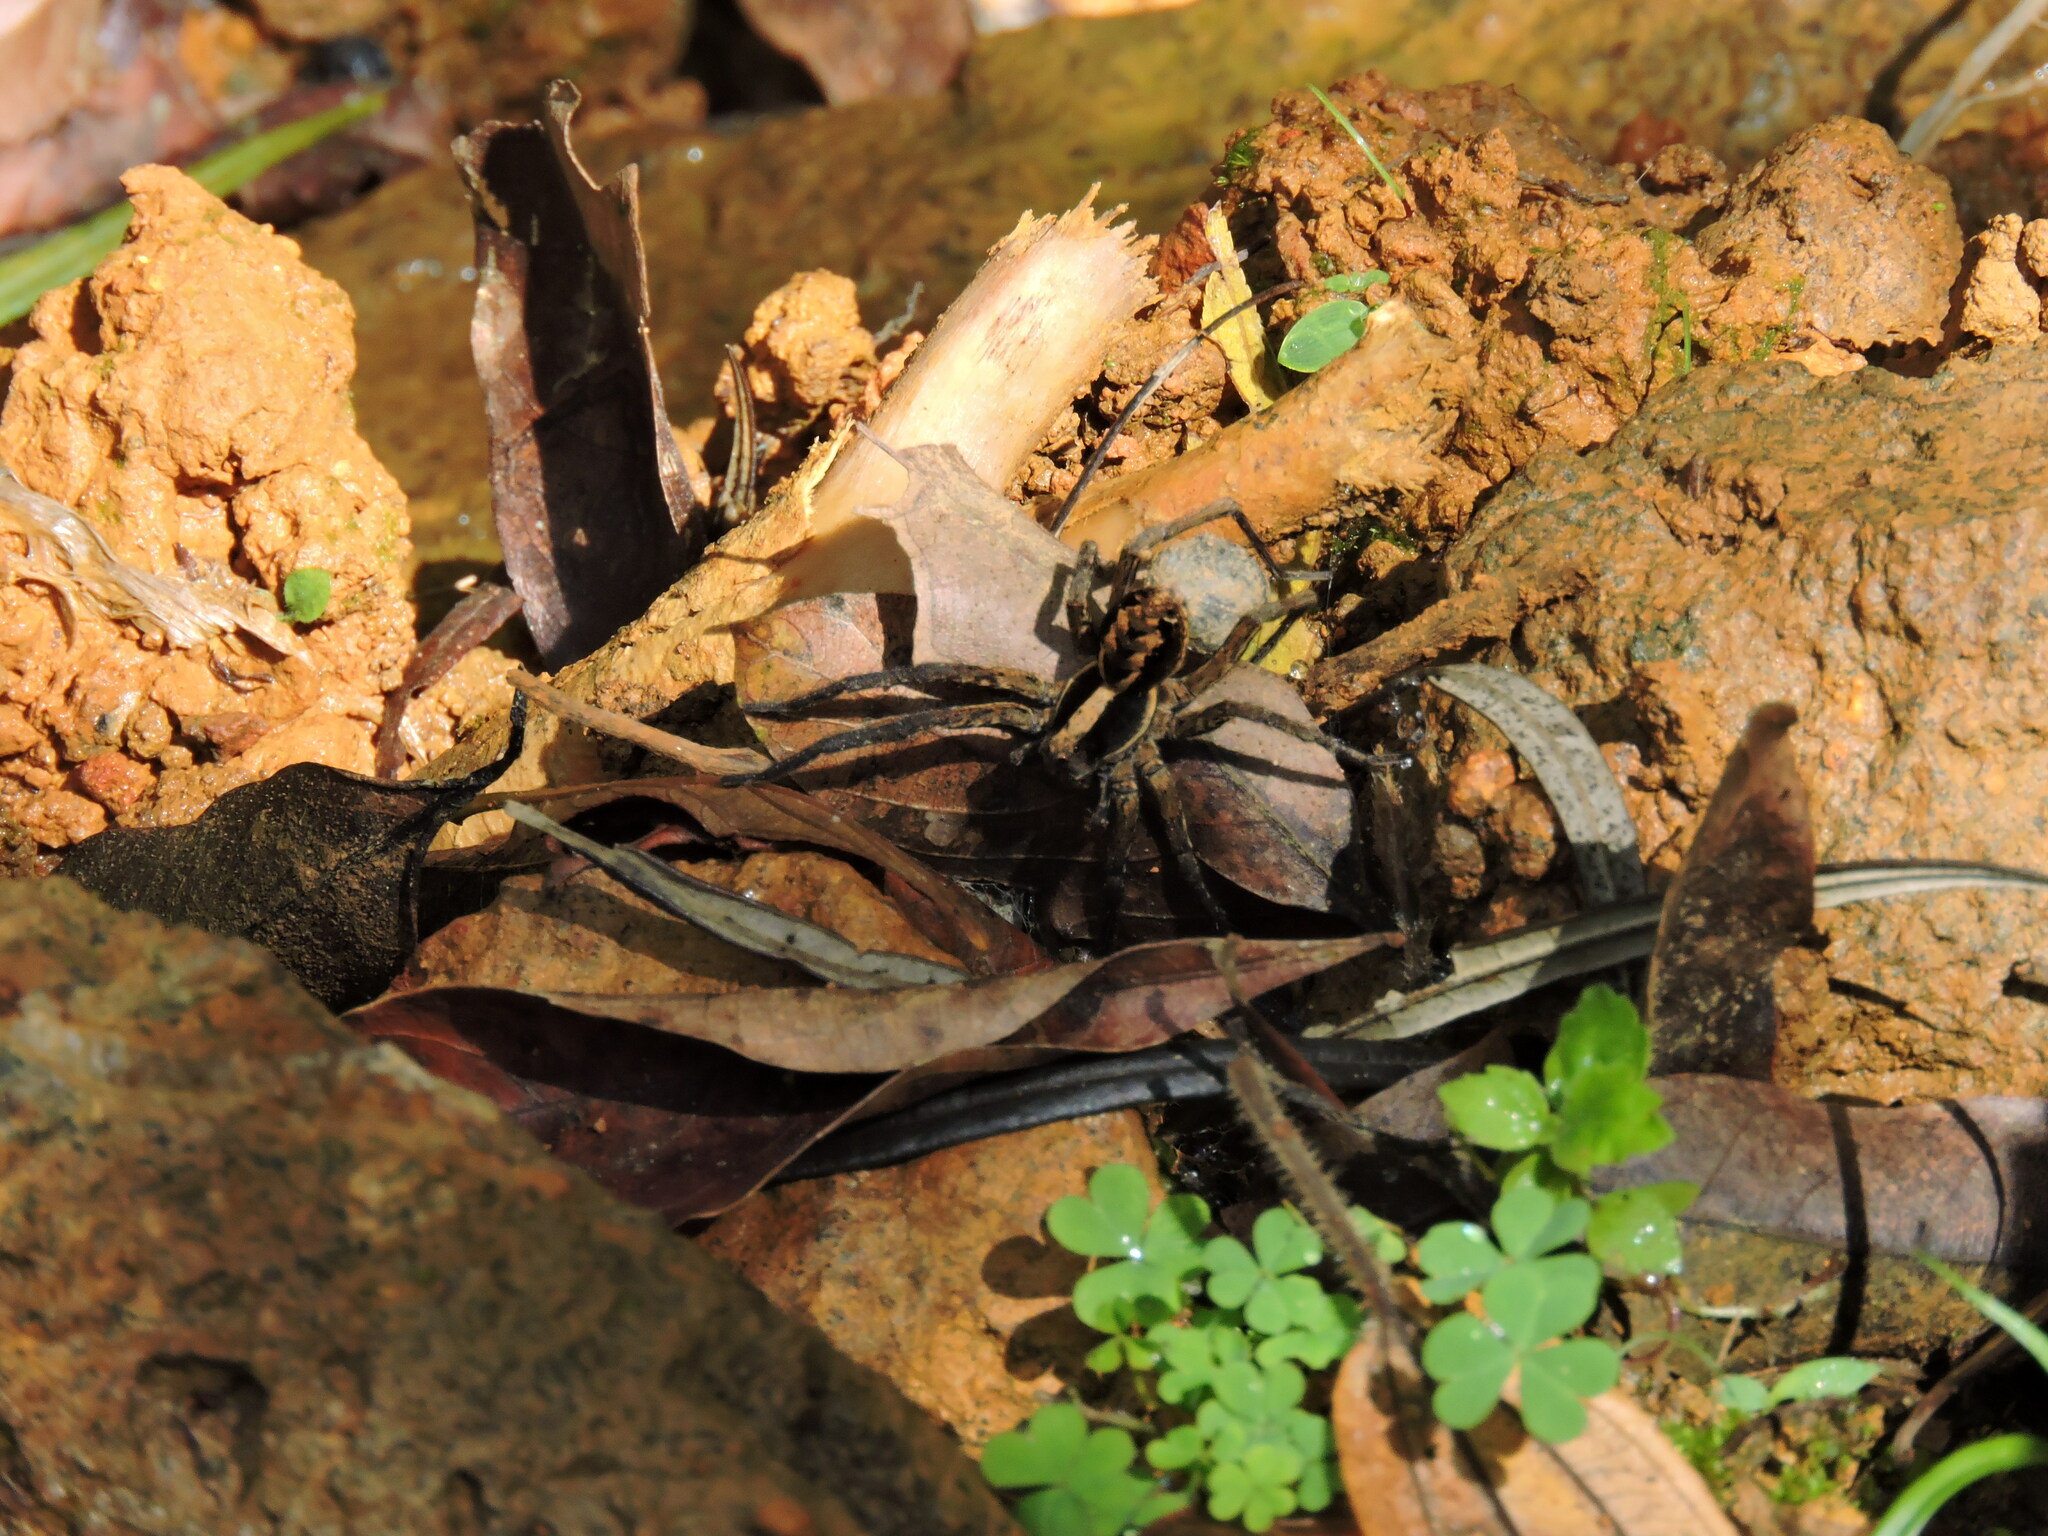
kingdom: Animalia
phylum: Arthropoda
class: Arachnida
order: Araneae
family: Lycosidae
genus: Hogna
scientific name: Hogna gumia
